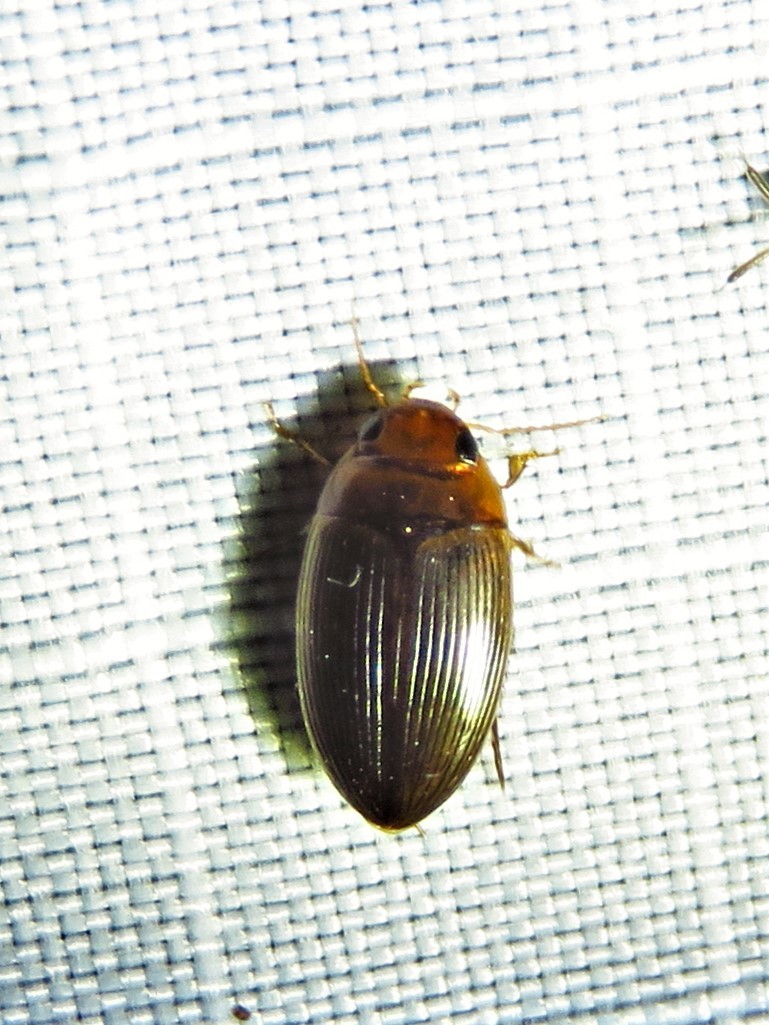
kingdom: Animalia
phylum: Arthropoda
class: Insecta
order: Coleoptera
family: Dytiscidae
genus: Copelatus
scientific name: Copelatus glyphicus
